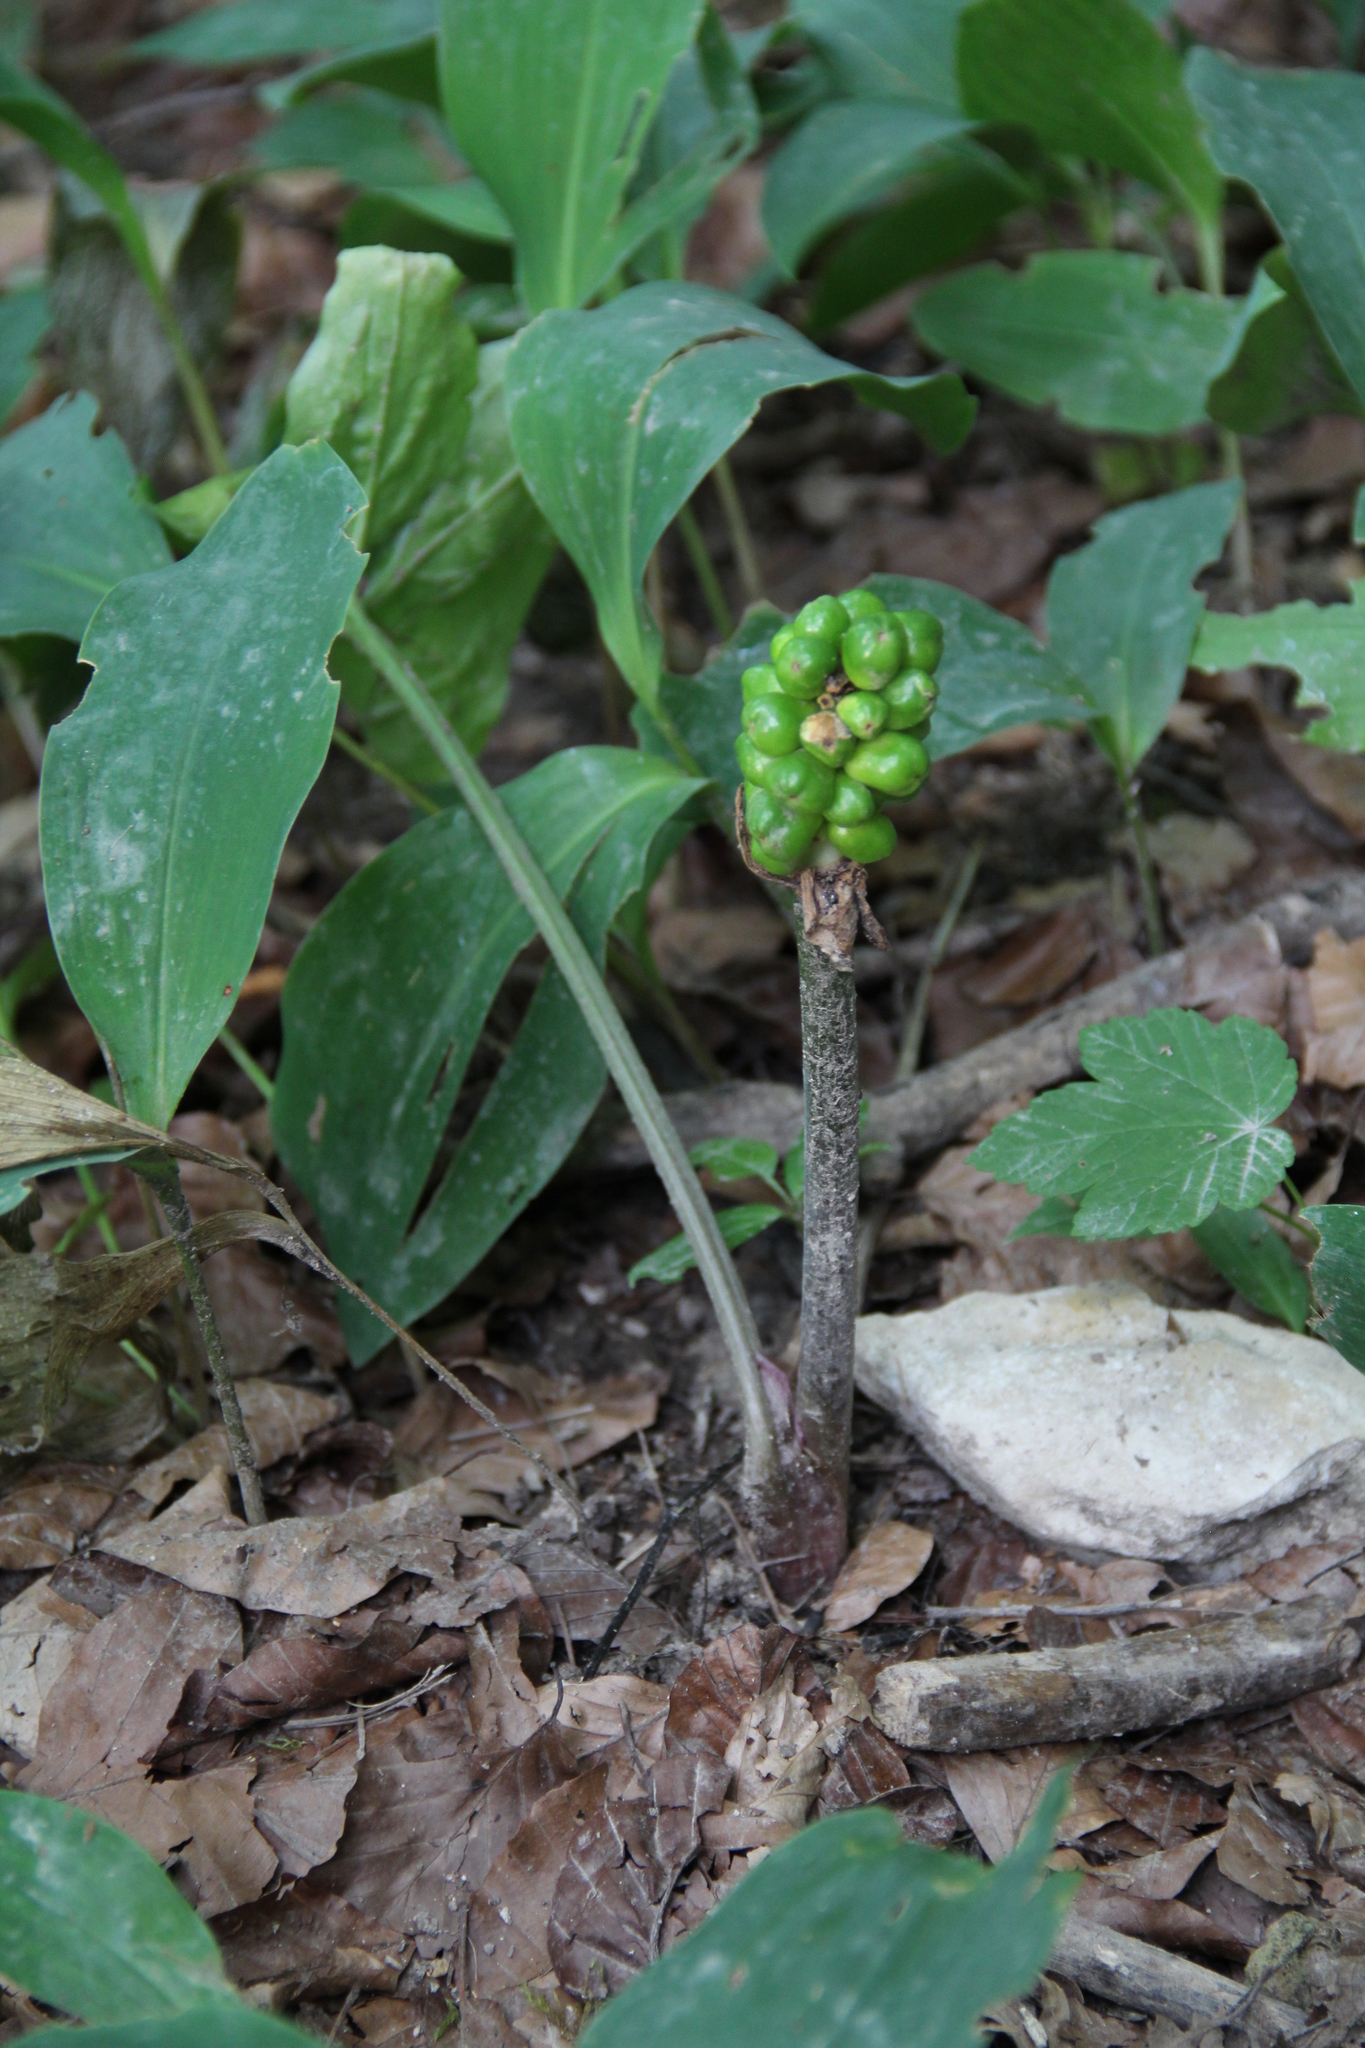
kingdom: Plantae
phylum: Tracheophyta
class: Liliopsida
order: Alismatales
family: Araceae
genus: Arum
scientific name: Arum maculatum
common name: Lords-and-ladies
